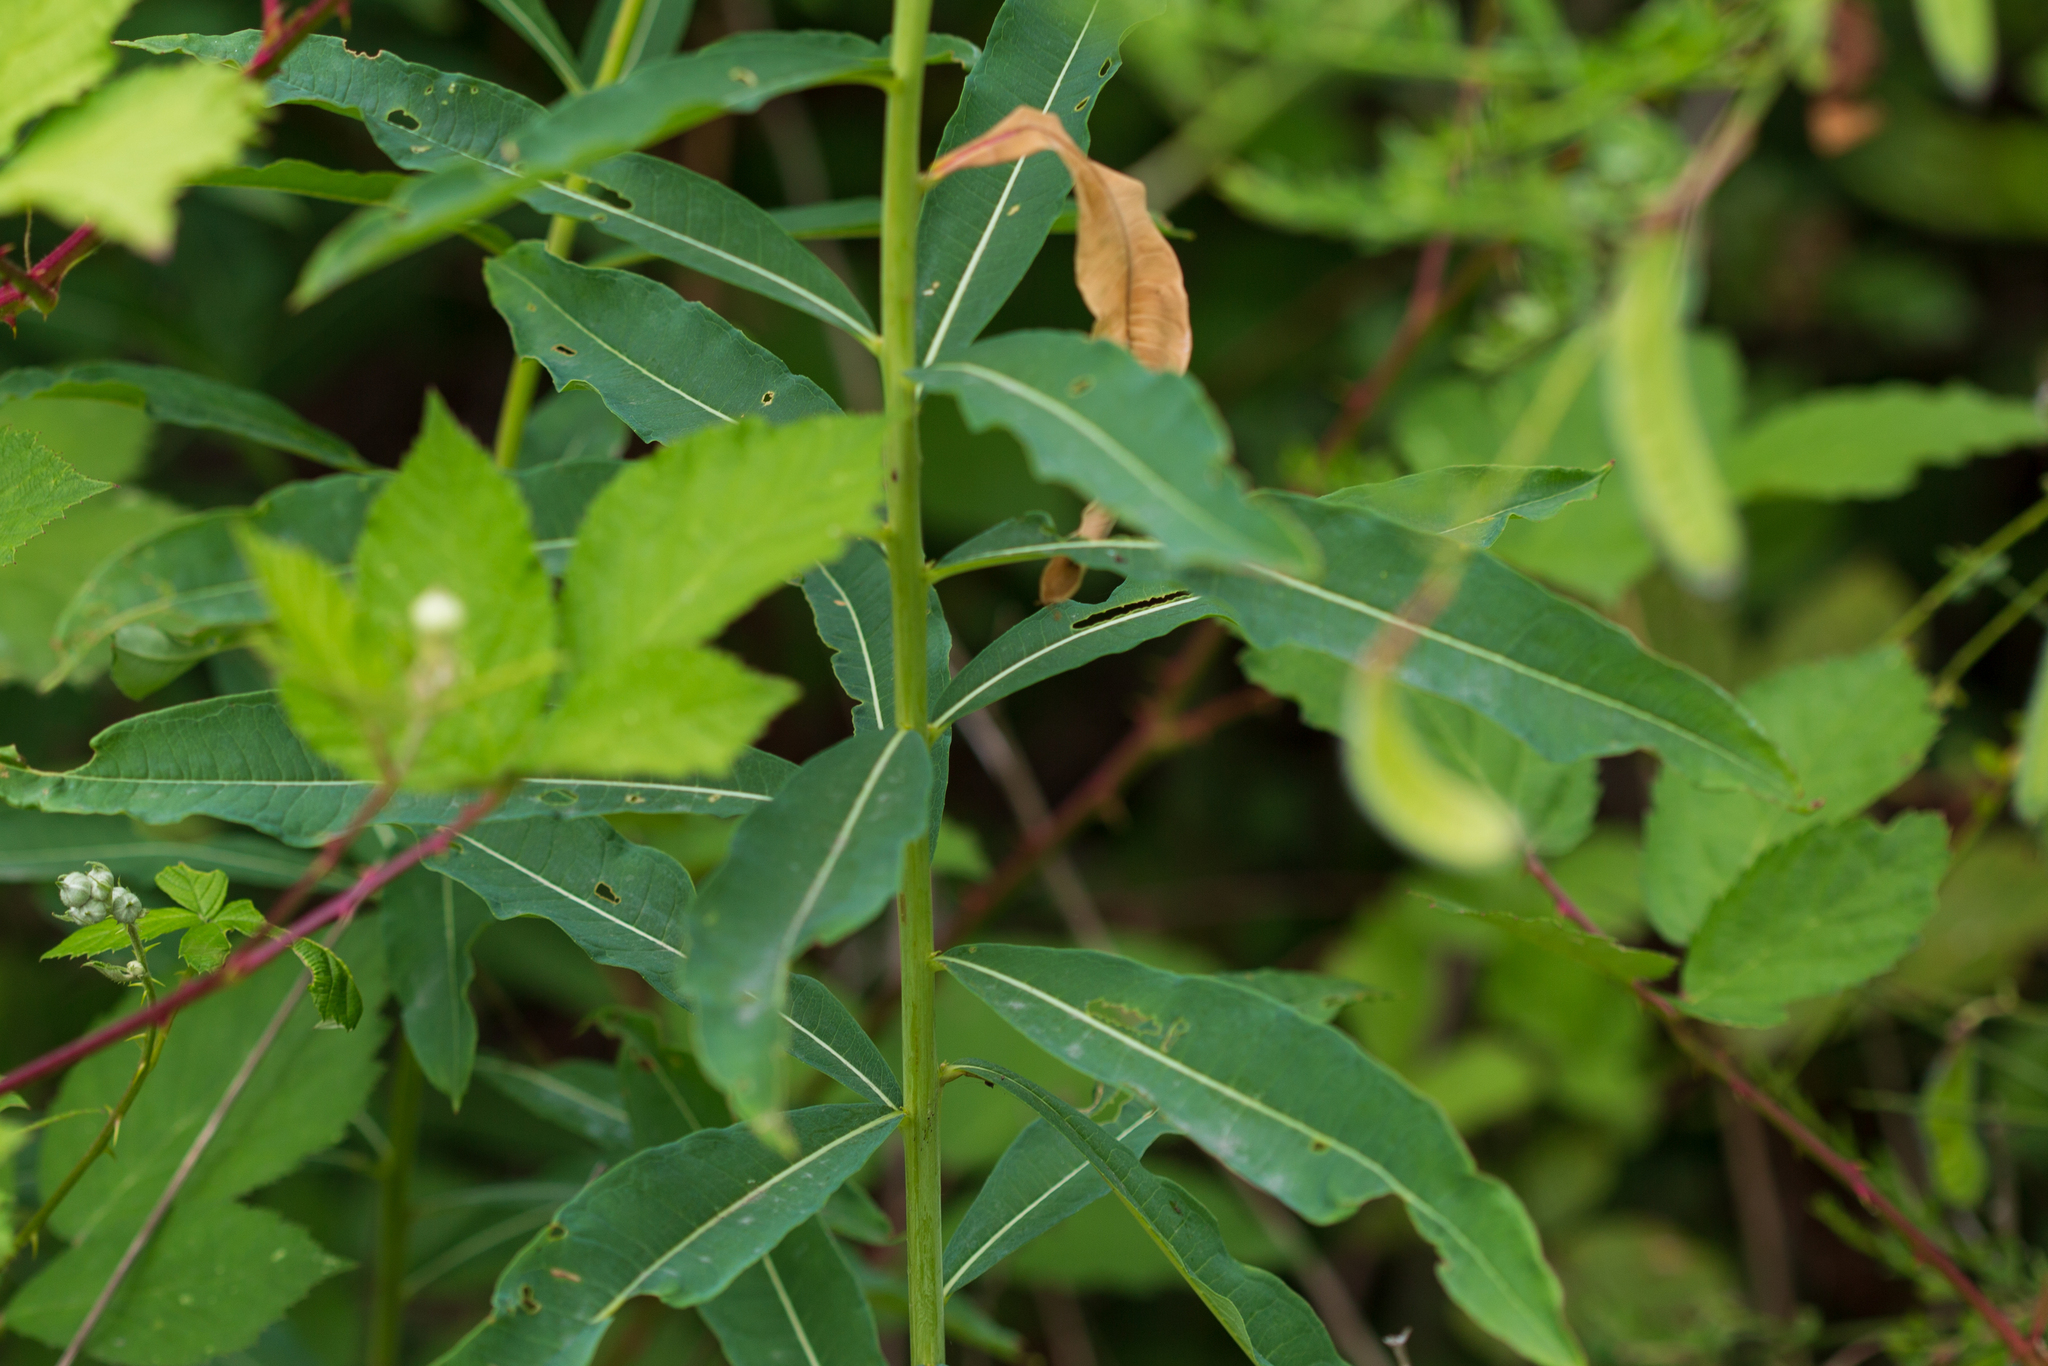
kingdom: Plantae
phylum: Tracheophyta
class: Magnoliopsida
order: Myrtales
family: Onagraceae
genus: Chamaenerion
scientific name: Chamaenerion angustifolium
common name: Fireweed
